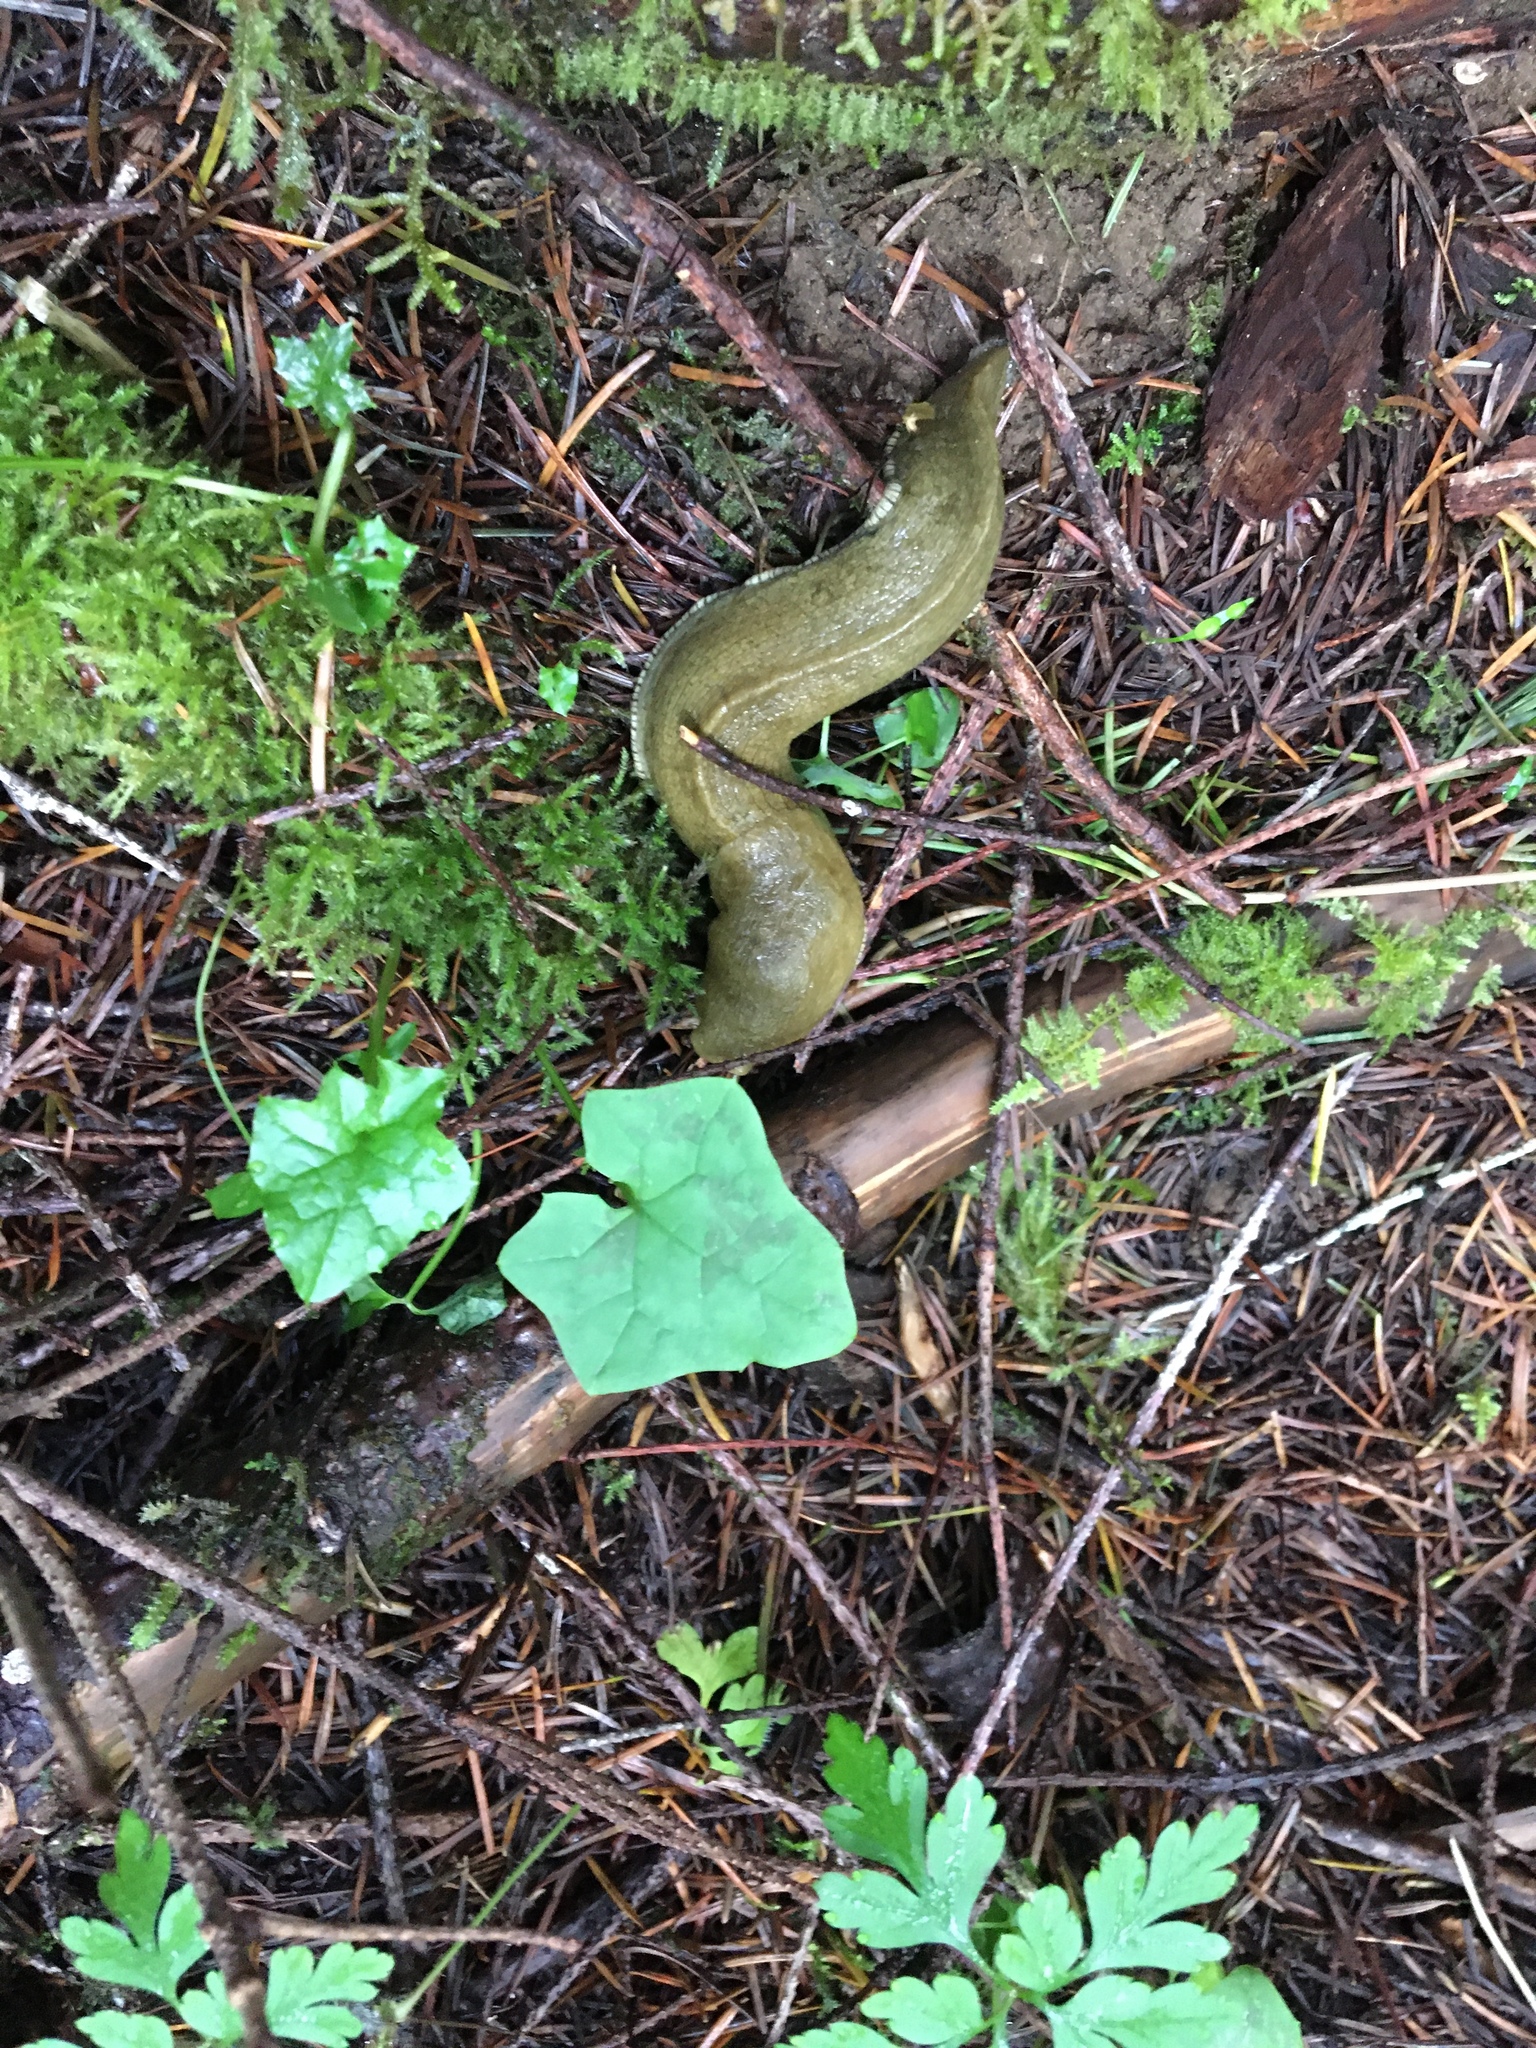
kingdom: Animalia
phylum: Mollusca
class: Gastropoda
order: Stylommatophora
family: Ariolimacidae
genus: Ariolimax
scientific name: Ariolimax columbianus
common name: Pacific banana slug
